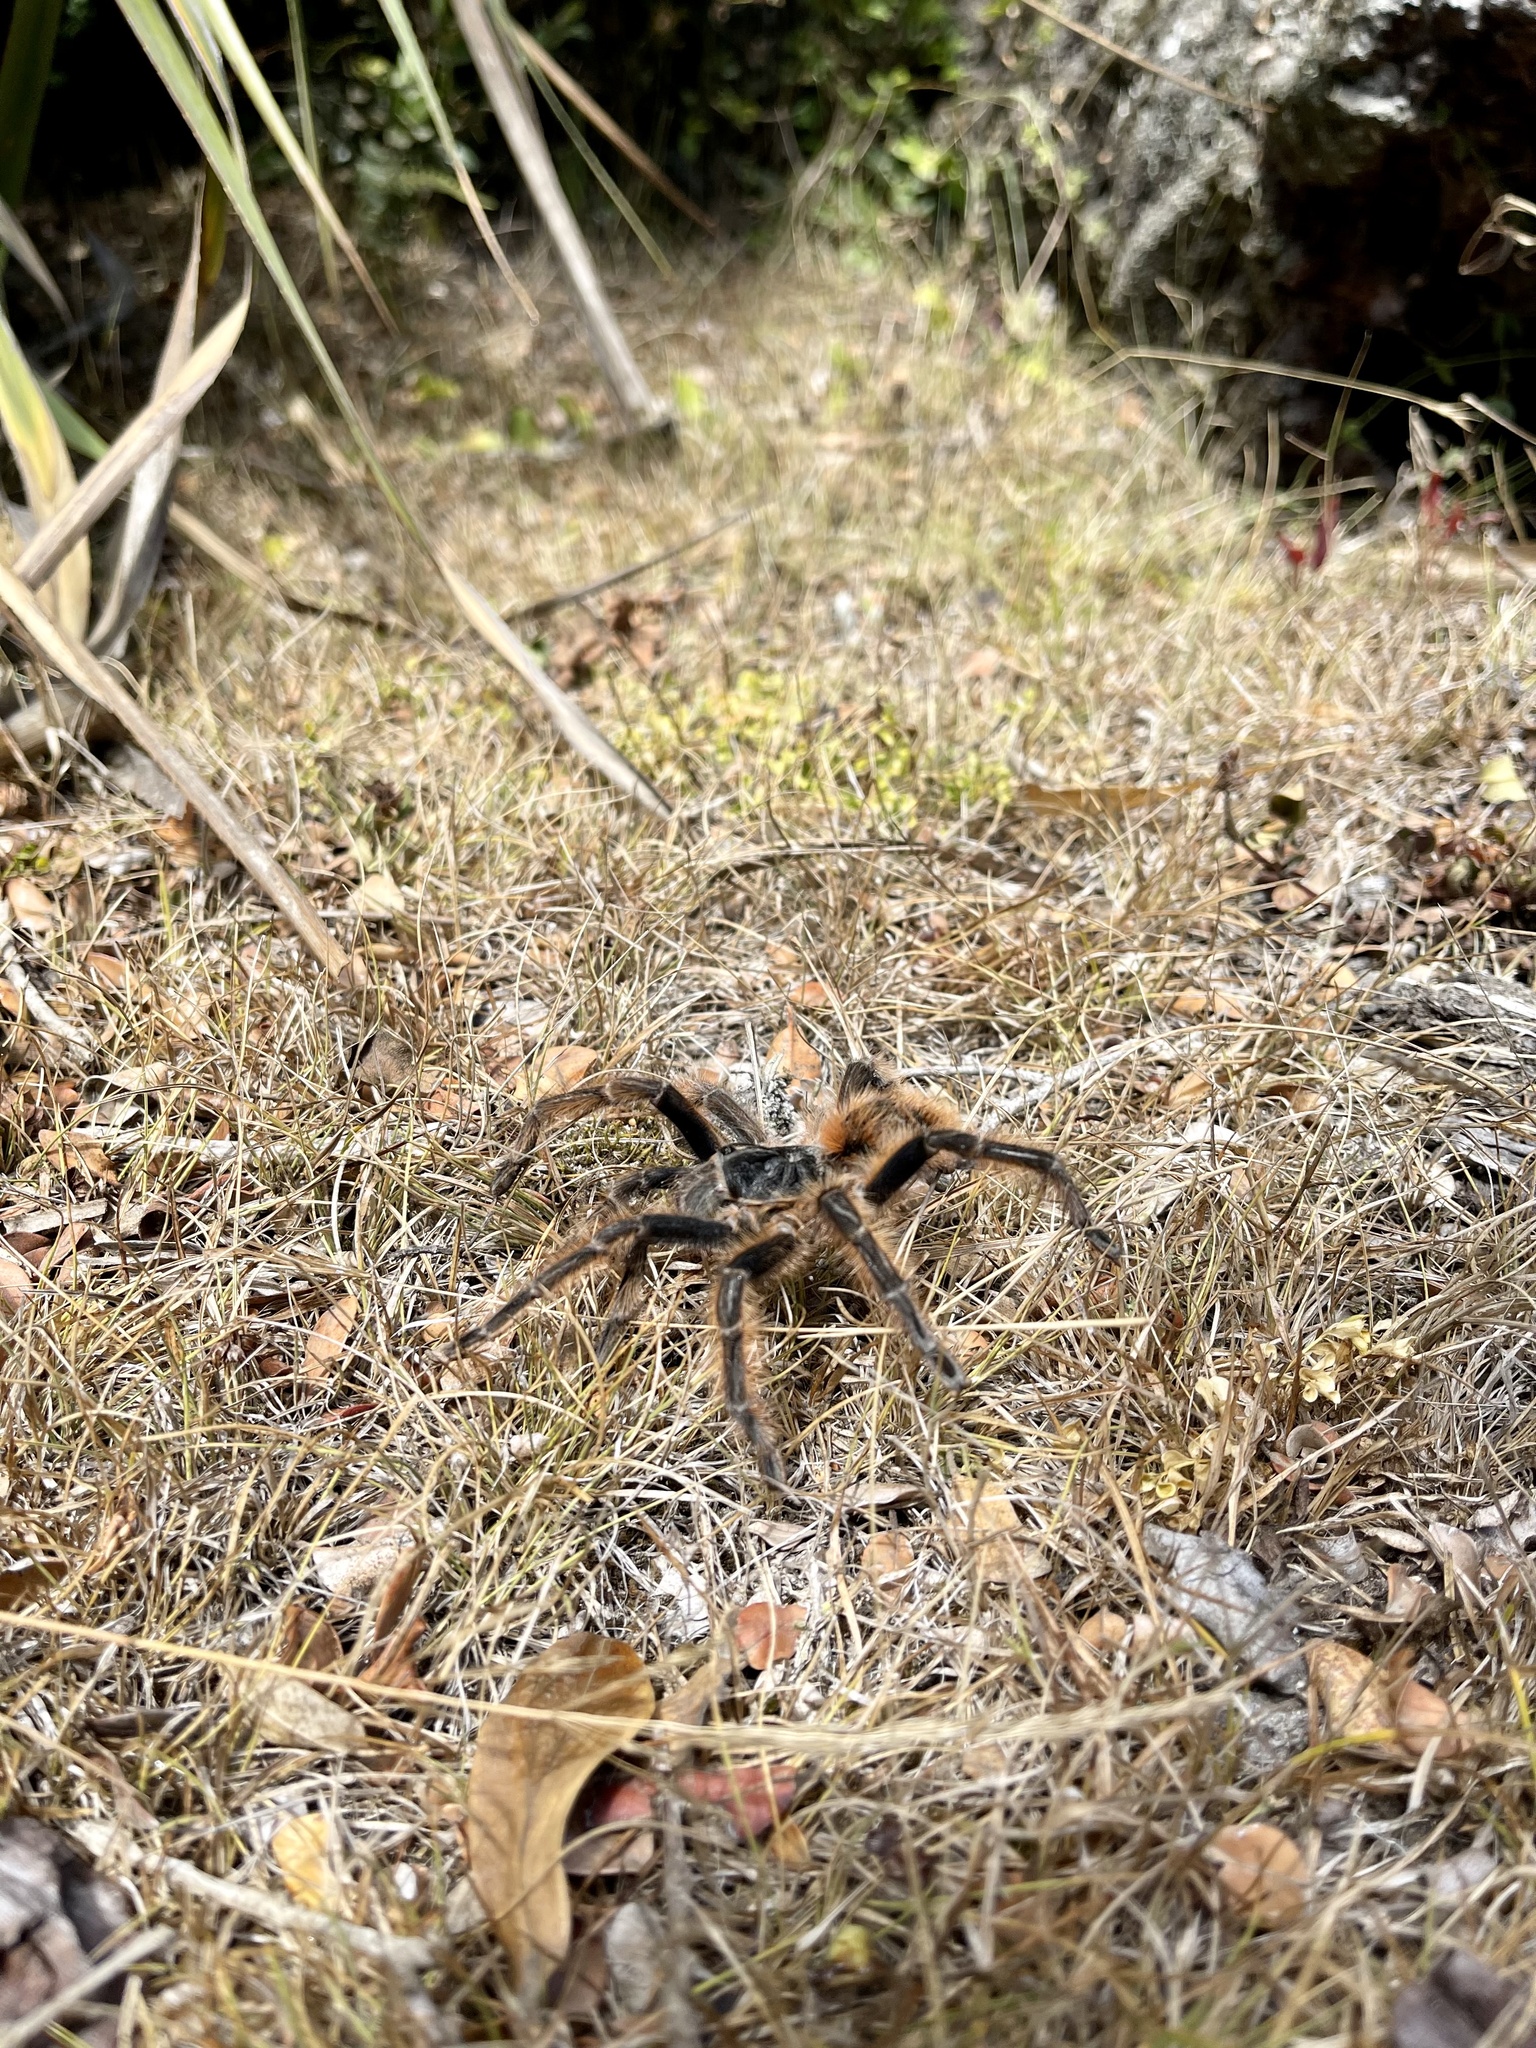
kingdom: Animalia
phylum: Arthropoda
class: Arachnida
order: Araneae
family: Theraphosidae
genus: Phrixotrichus
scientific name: Phrixotrichus vulpinus
